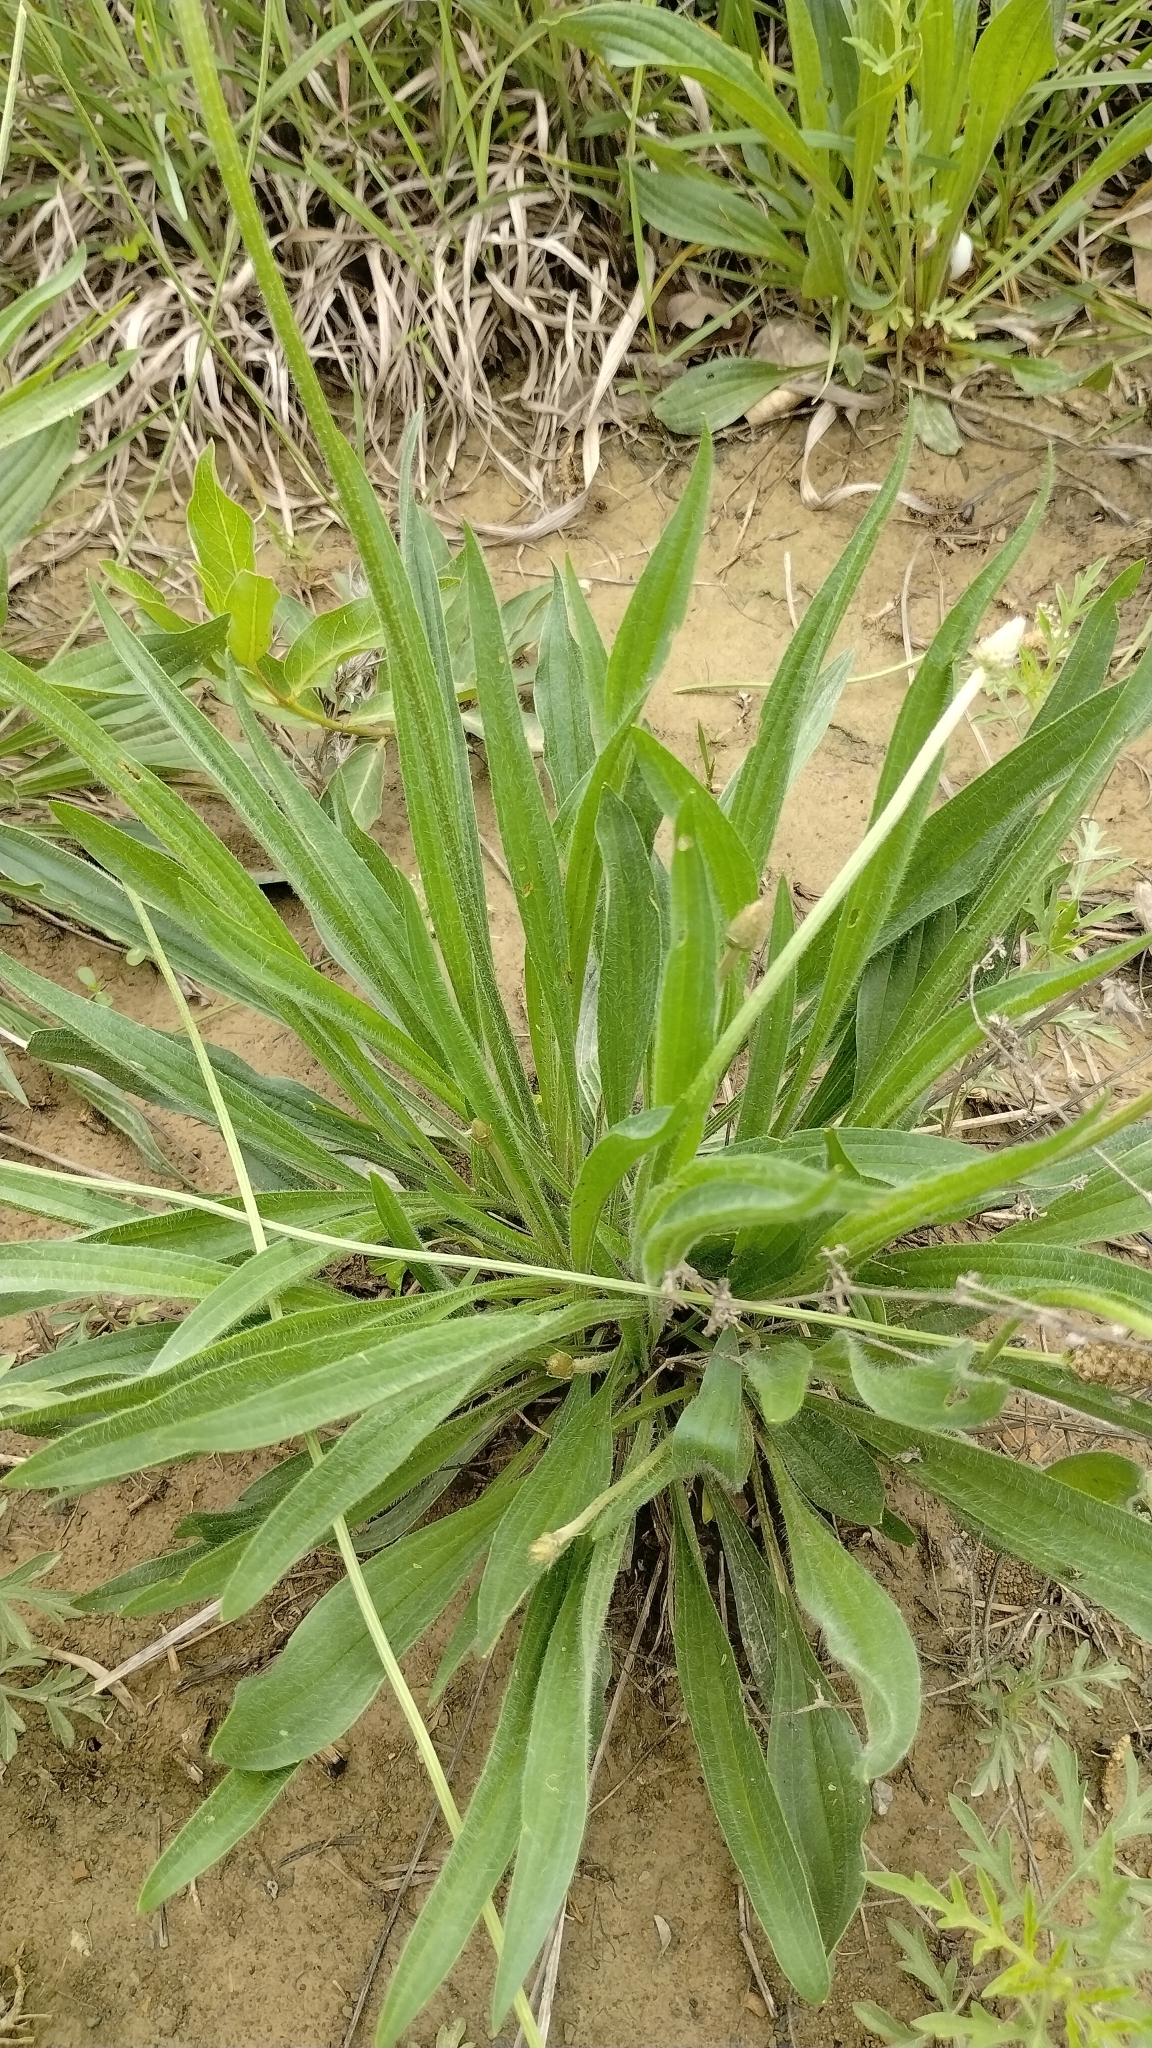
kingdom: Plantae
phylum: Tracheophyta
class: Magnoliopsida
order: Lamiales
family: Plantaginaceae
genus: Plantago
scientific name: Plantago lanceolata
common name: Ribwort plantain
